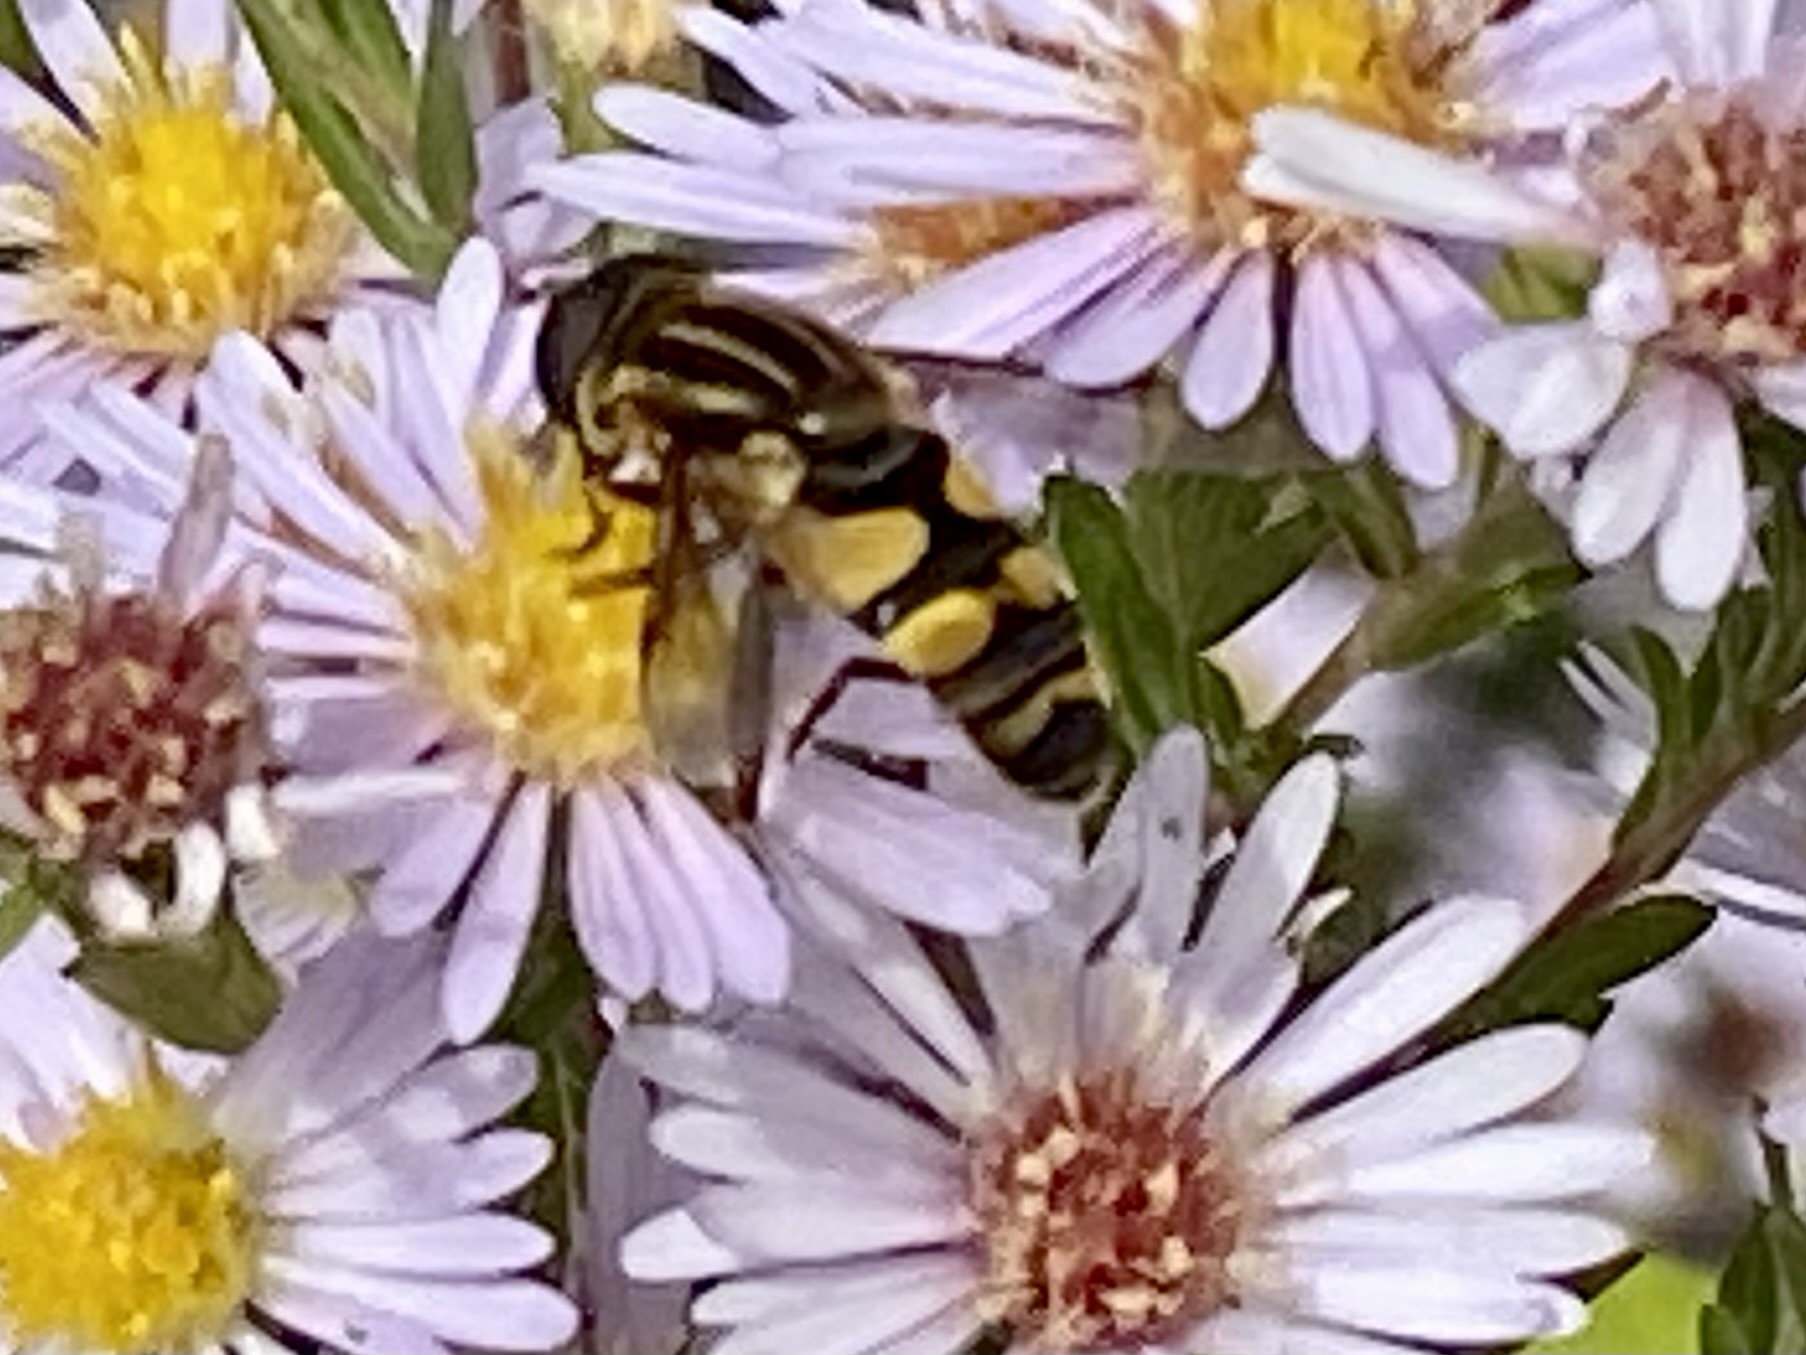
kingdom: Animalia
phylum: Arthropoda
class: Insecta
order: Diptera
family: Syrphidae
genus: Helophilus
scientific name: Helophilus latifrons
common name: Broad-headed marsh fly
